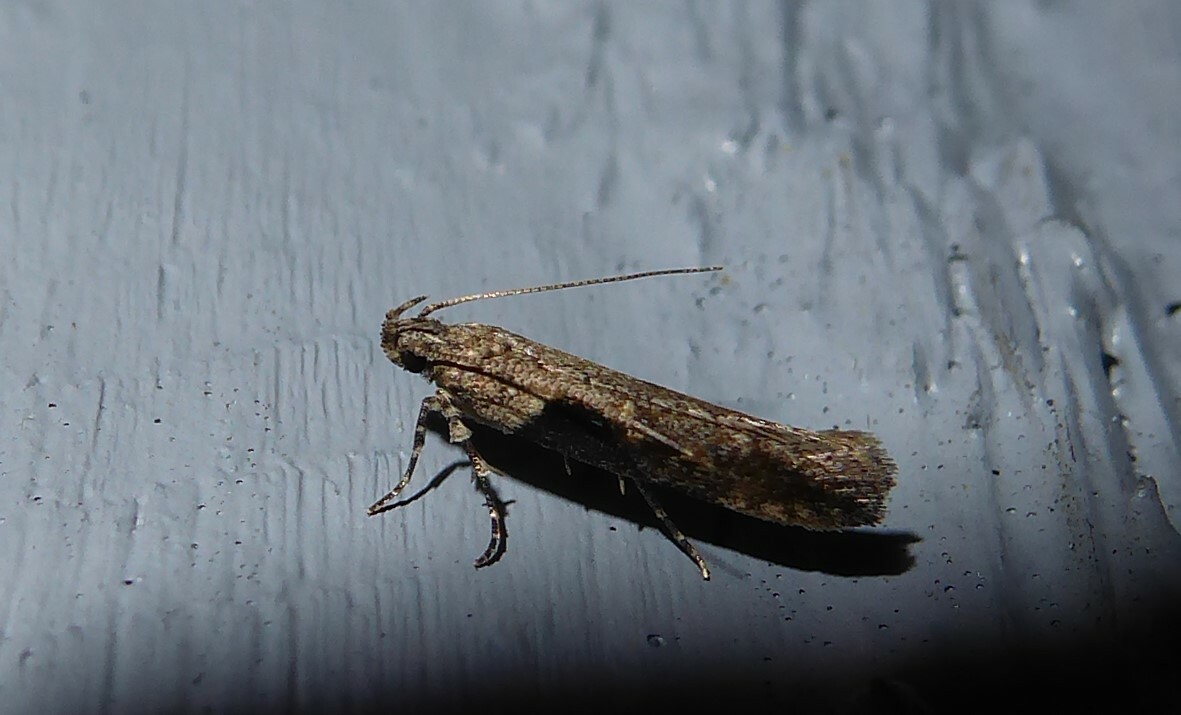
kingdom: Animalia
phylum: Arthropoda
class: Insecta
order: Lepidoptera
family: Gelechiidae
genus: Symmetrischema
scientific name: Symmetrischema tangolias
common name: Moth
